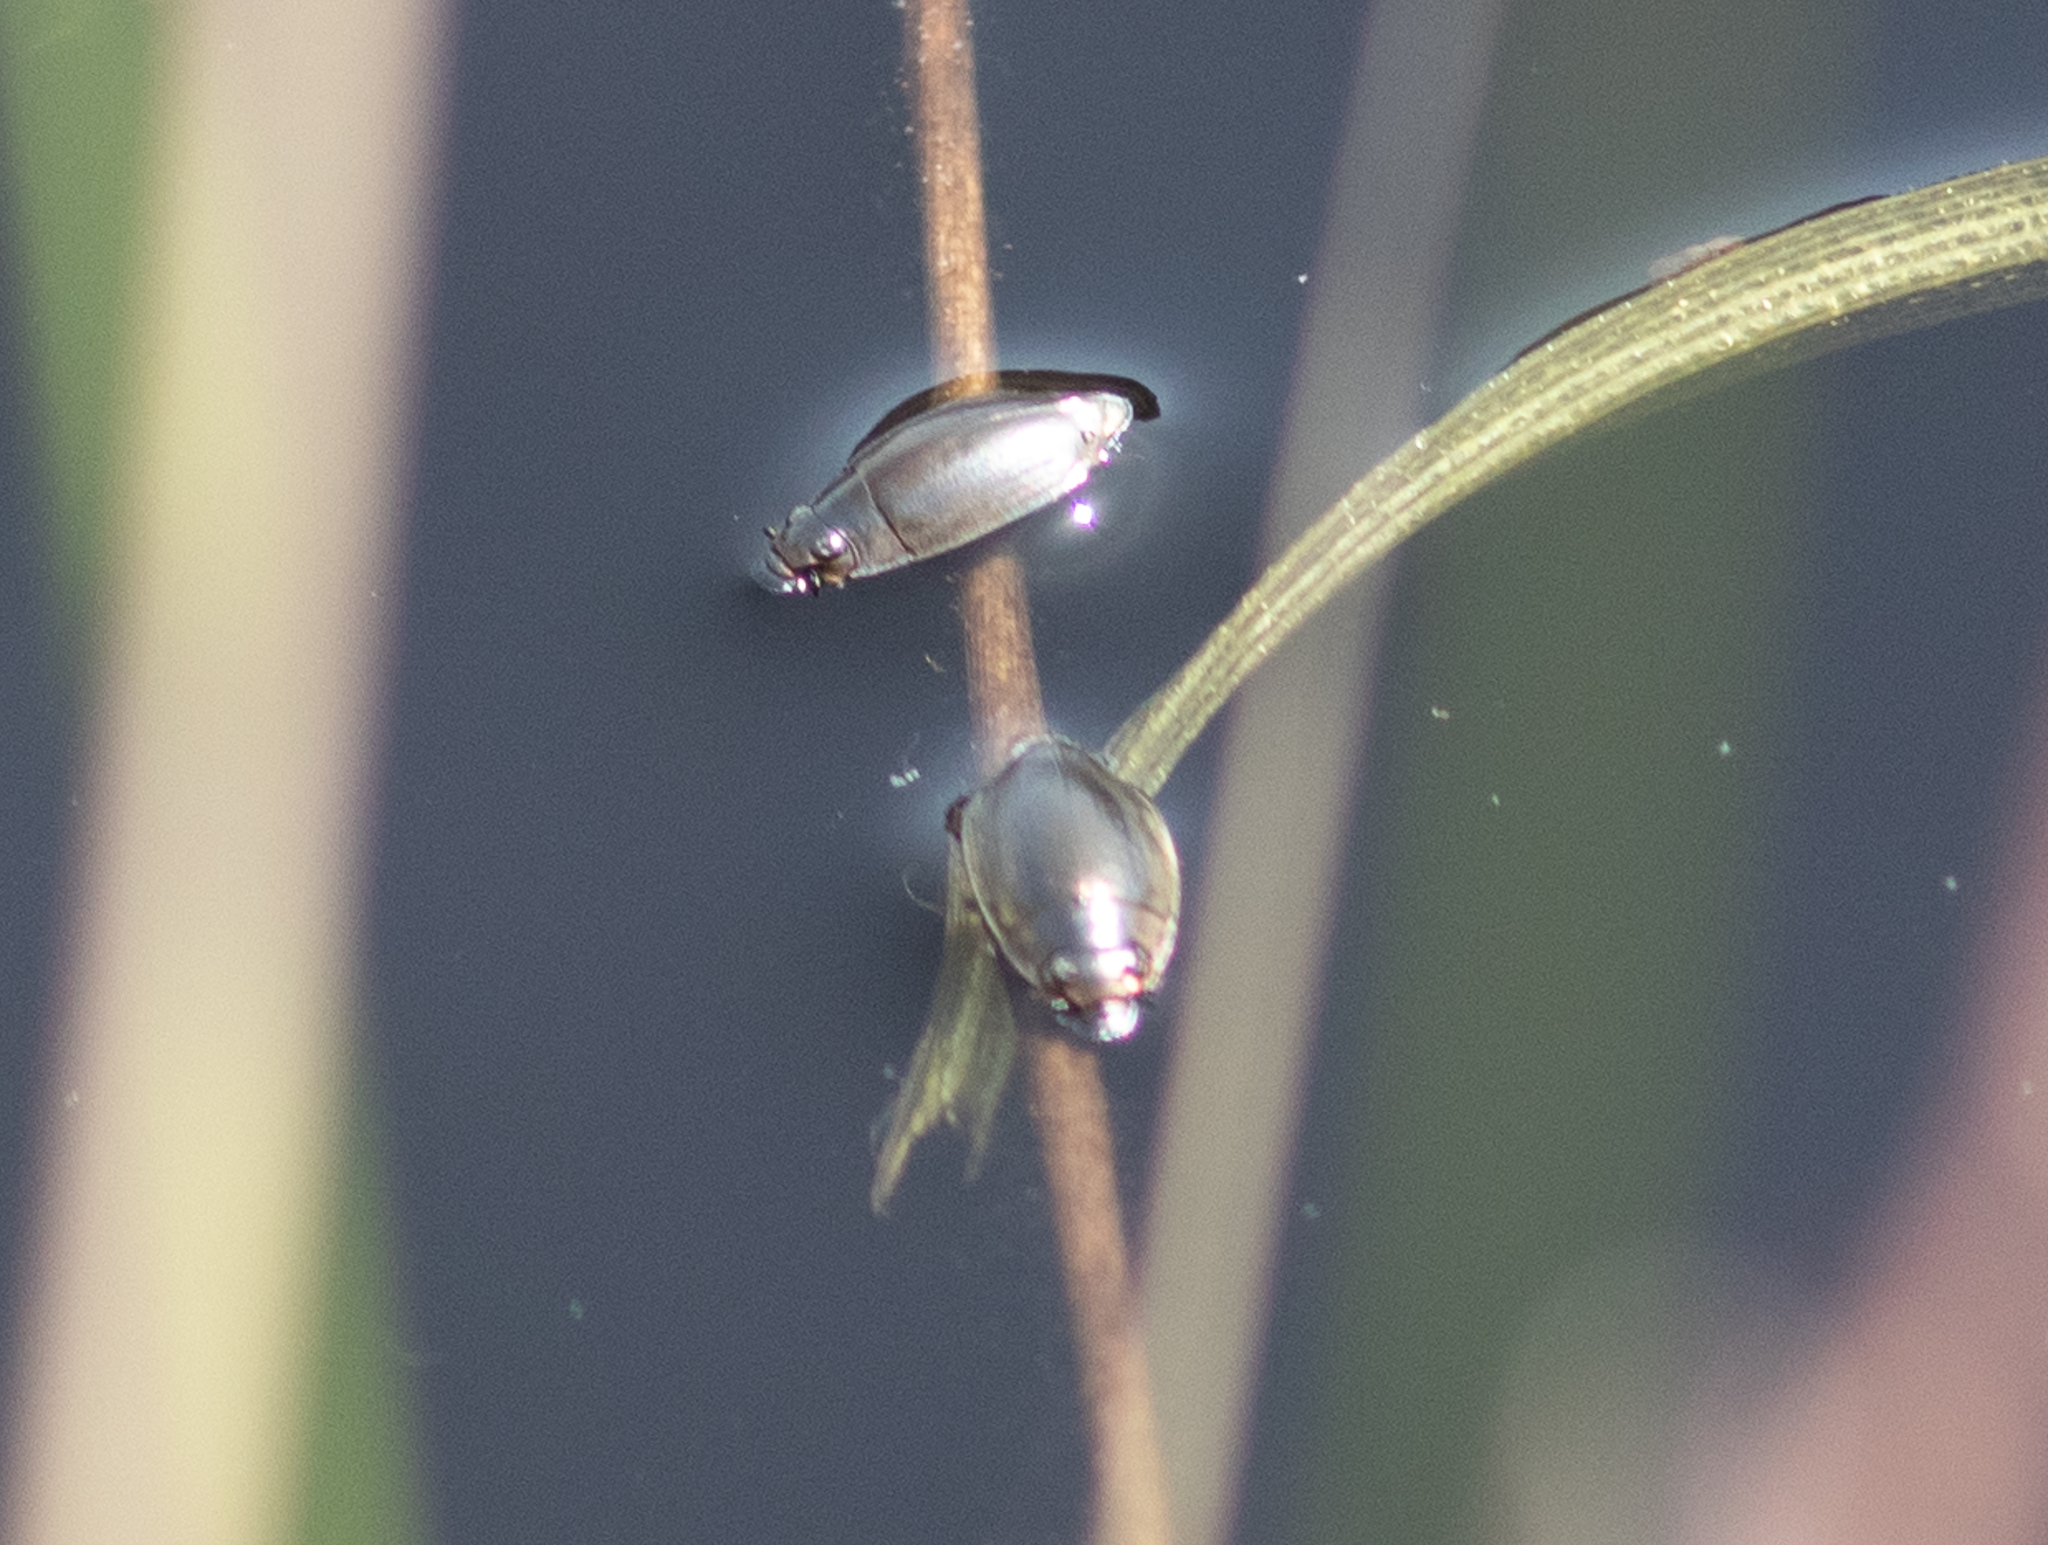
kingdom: Animalia
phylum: Arthropoda
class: Insecta
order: Coleoptera
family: Gyrinidae
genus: Dineutus
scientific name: Dineutus
